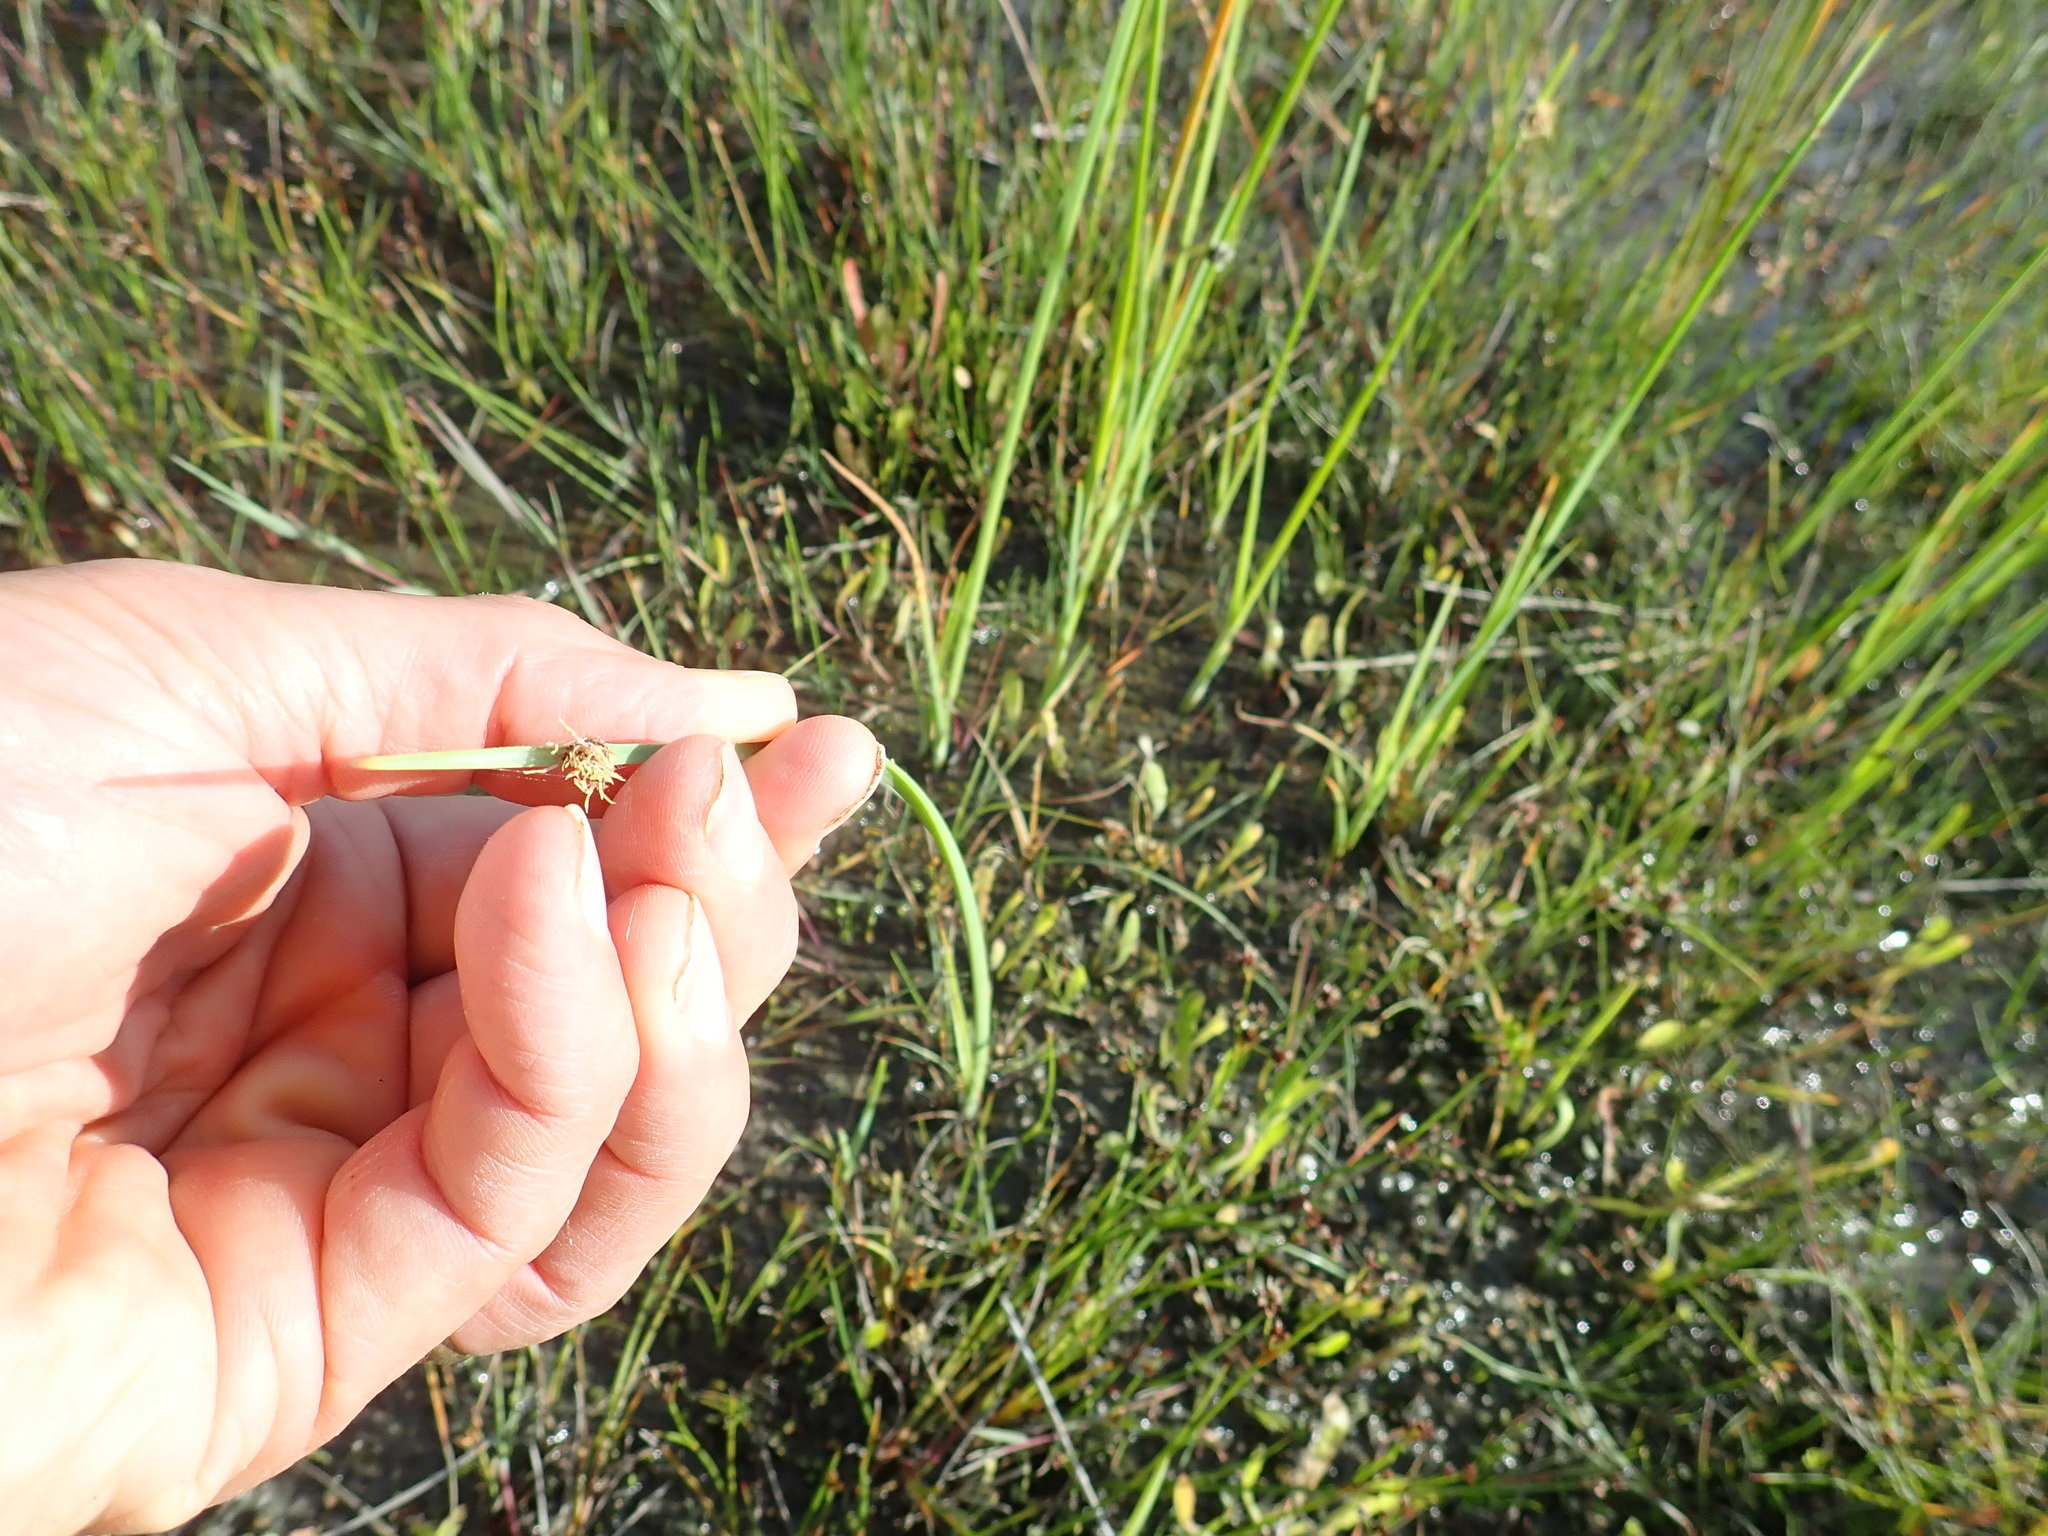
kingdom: Plantae
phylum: Tracheophyta
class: Liliopsida
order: Poales
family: Cyperaceae
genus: Schoenoplectus
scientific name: Schoenoplectus pungens
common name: Sharp club-rush
